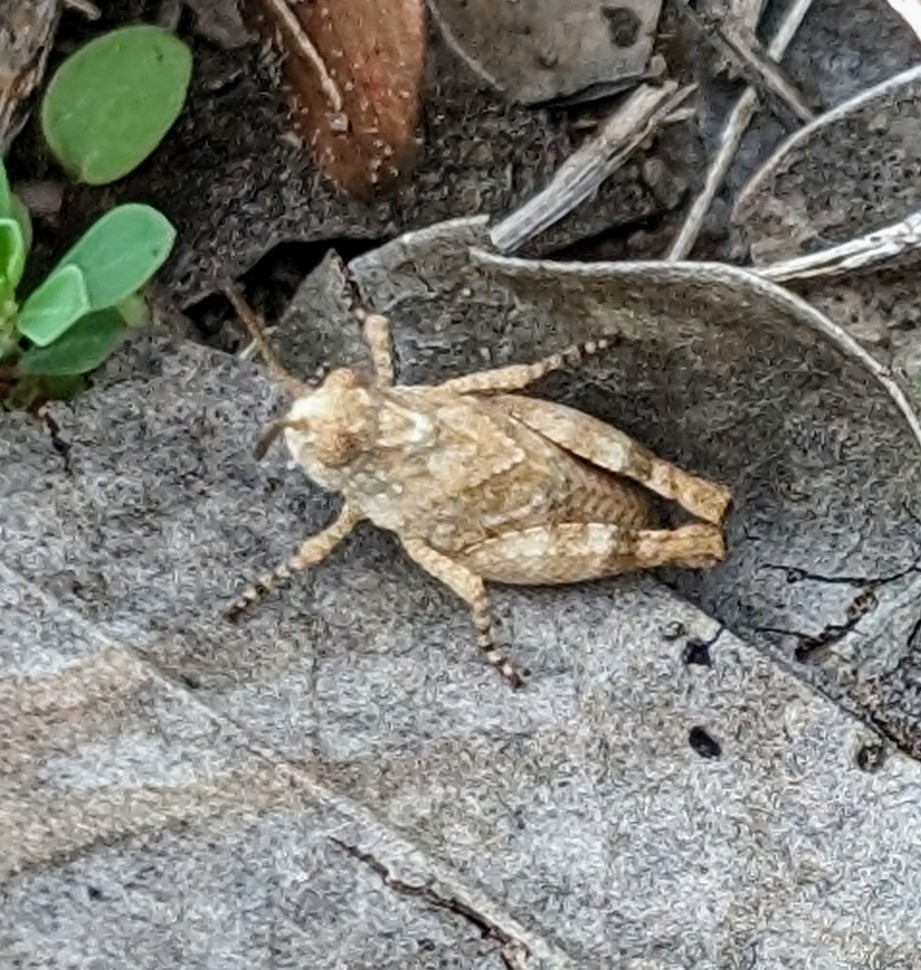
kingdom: Animalia
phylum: Arthropoda
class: Insecta
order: Orthoptera
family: Acrididae
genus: Lactista
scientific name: Lactista azteca
